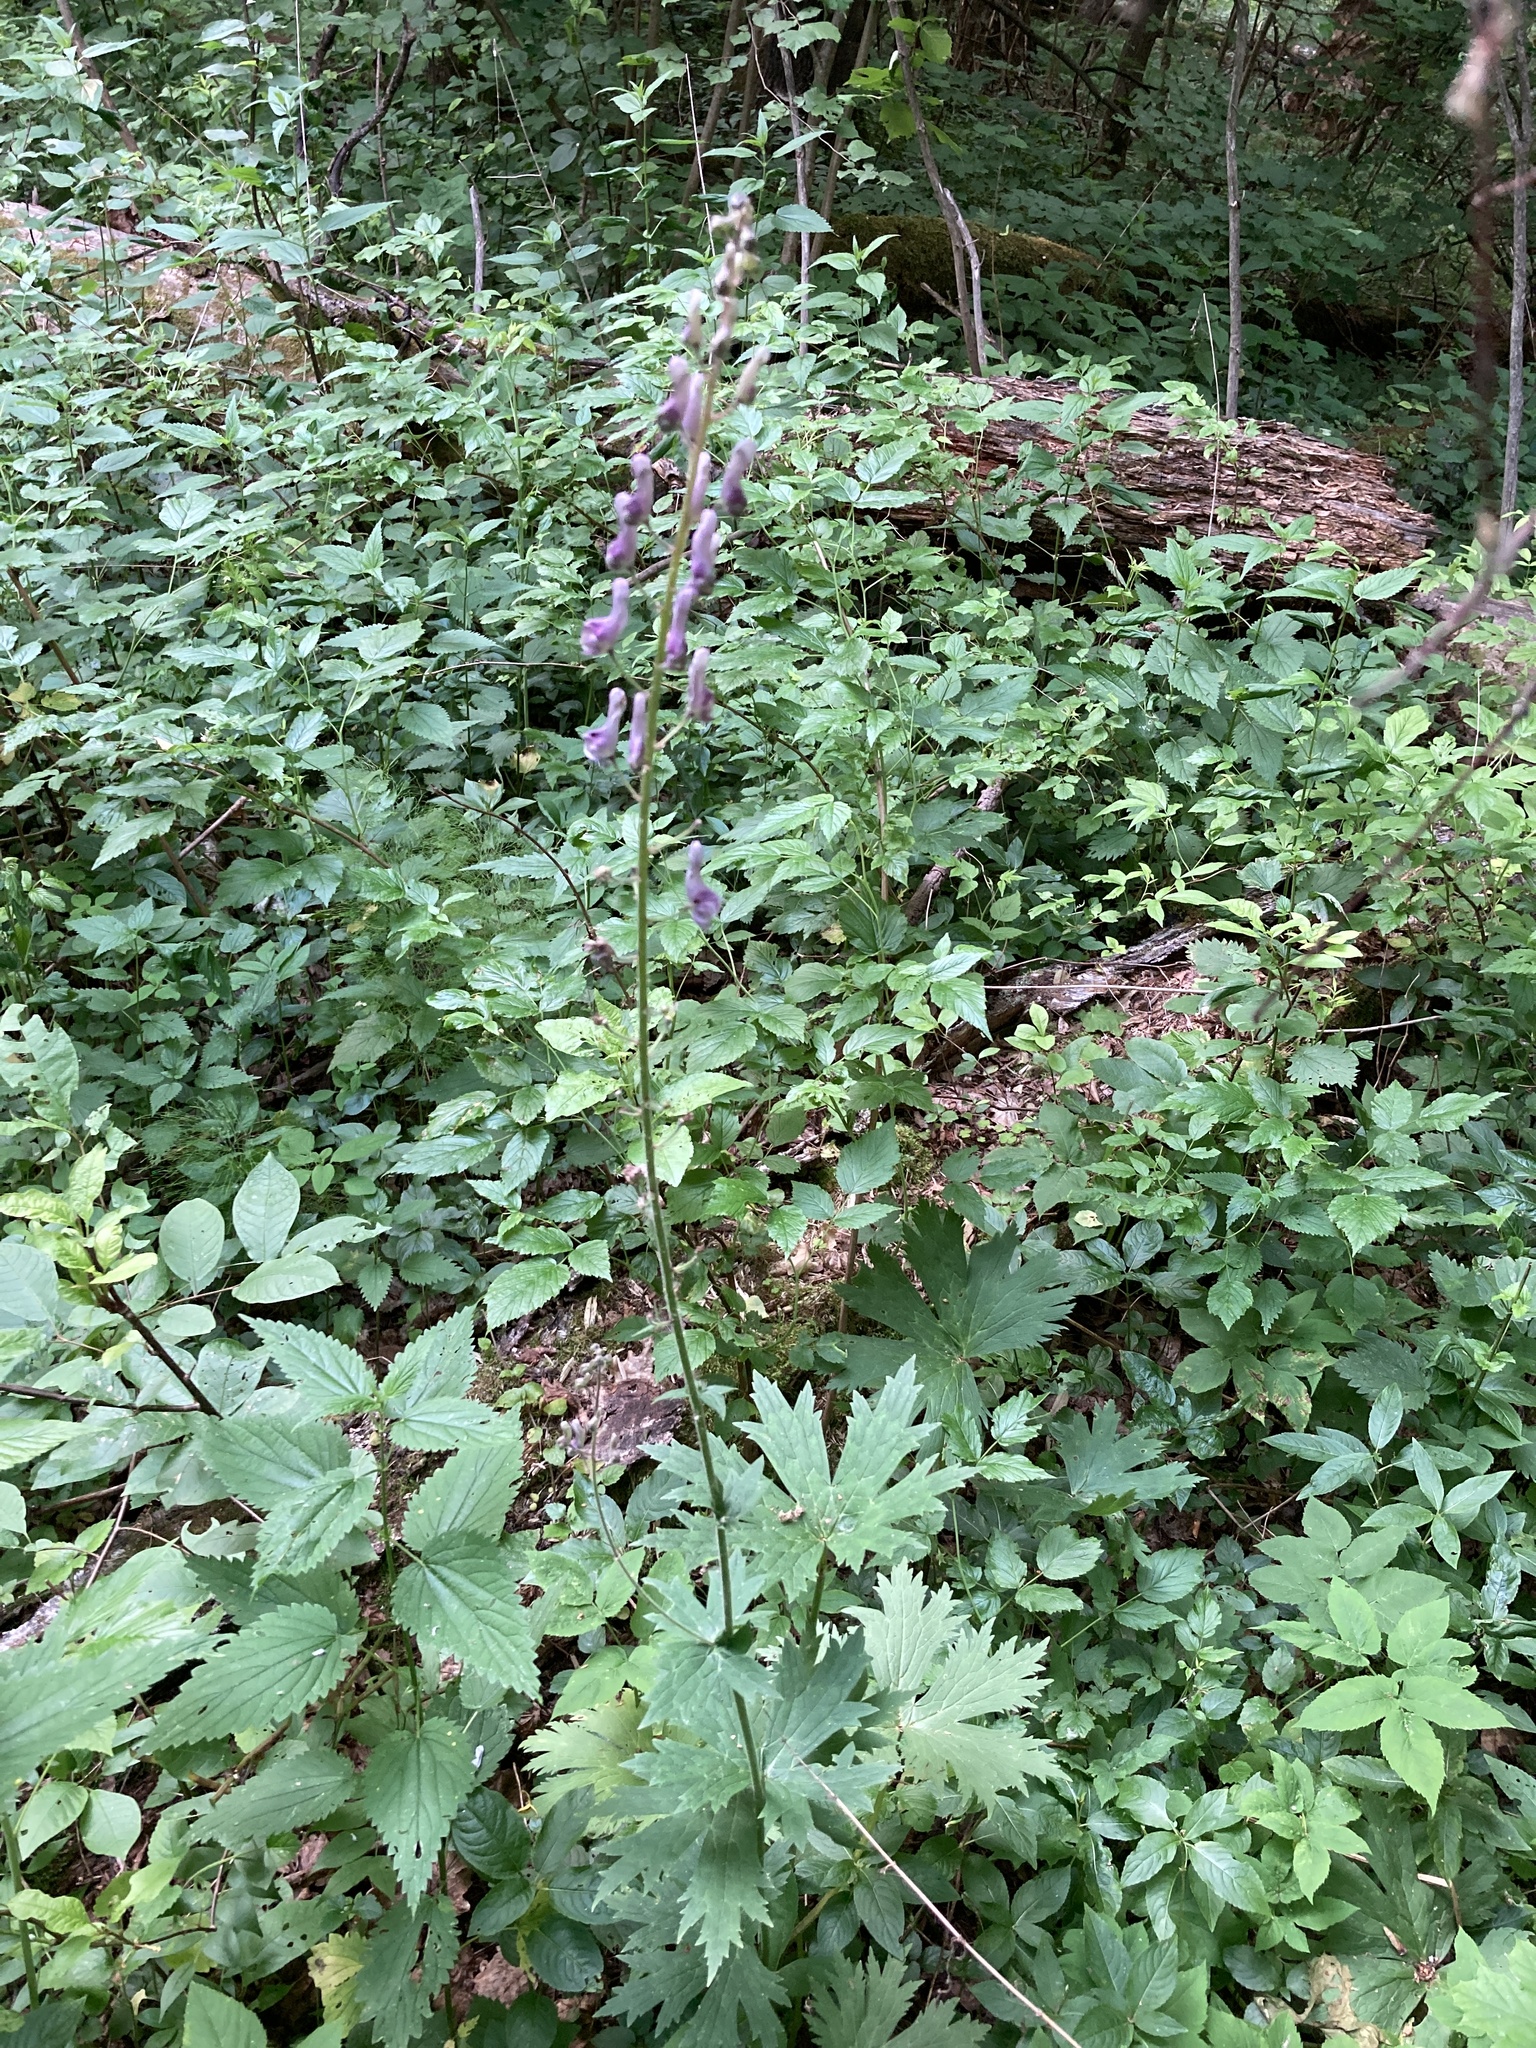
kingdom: Plantae
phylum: Tracheophyta
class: Magnoliopsida
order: Ranunculales
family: Ranunculaceae
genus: Aconitum
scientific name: Aconitum septentrionale
